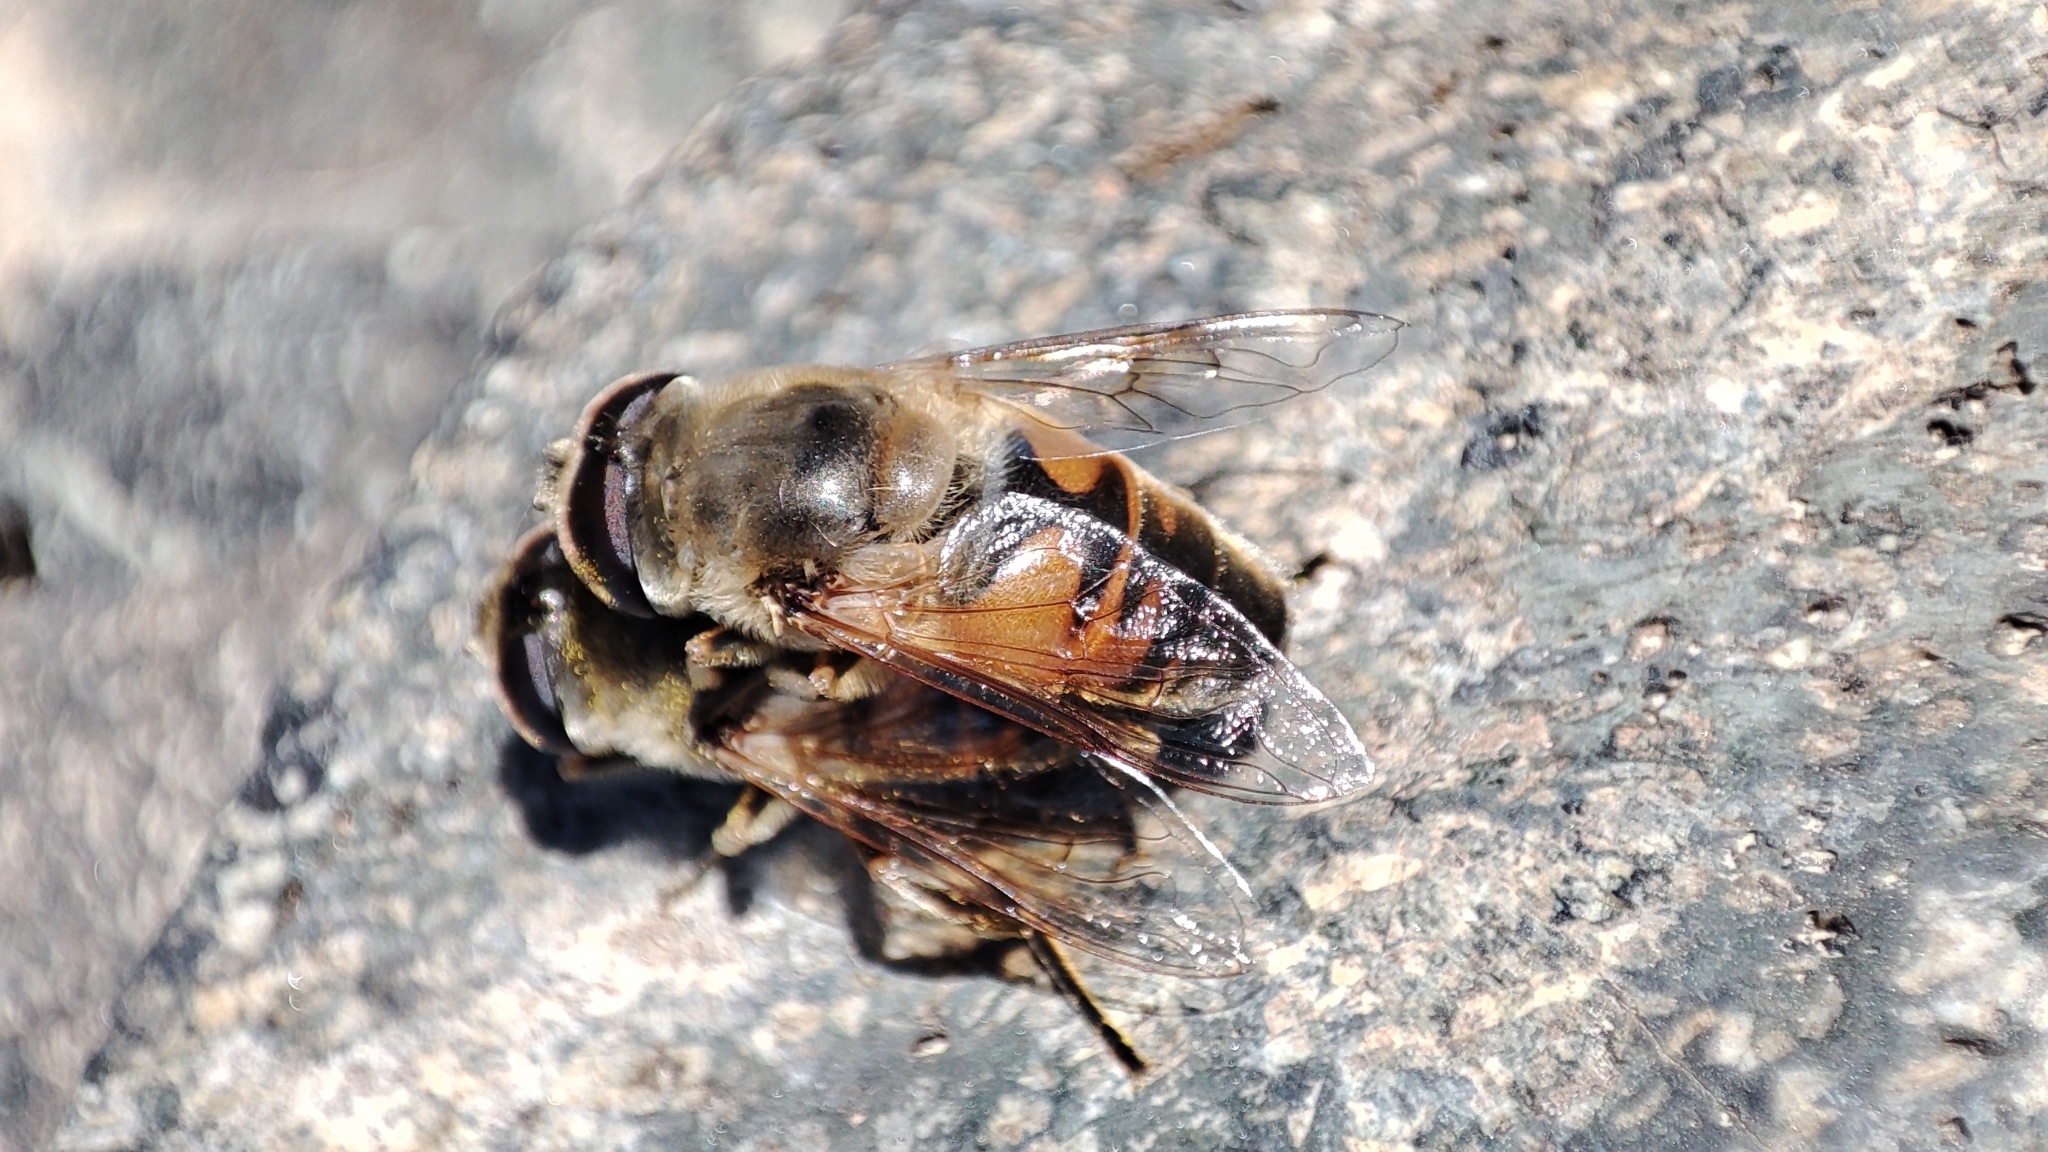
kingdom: Animalia
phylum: Arthropoda
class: Insecta
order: Diptera
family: Syrphidae
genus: Eristalis
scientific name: Eristalis tenax
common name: Drone fly
